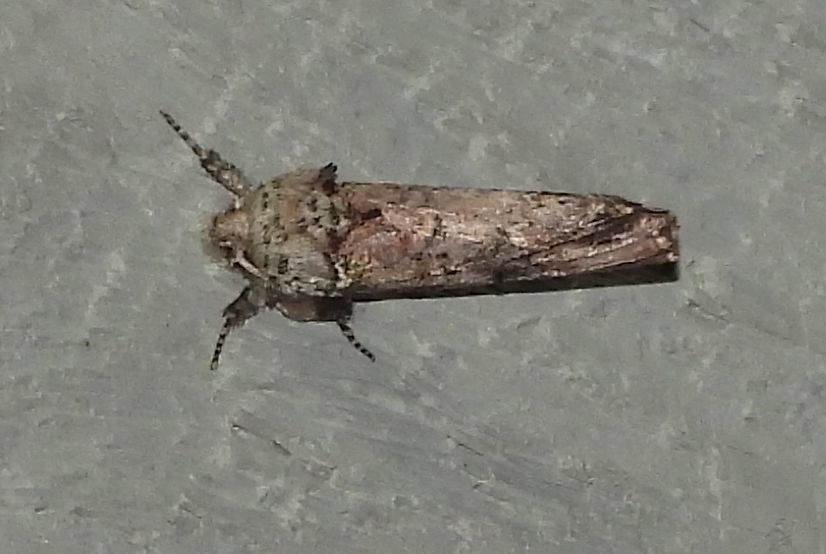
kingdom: Animalia
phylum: Arthropoda
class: Insecta
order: Lepidoptera
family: Notodontidae
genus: Schizura
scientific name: Schizura
